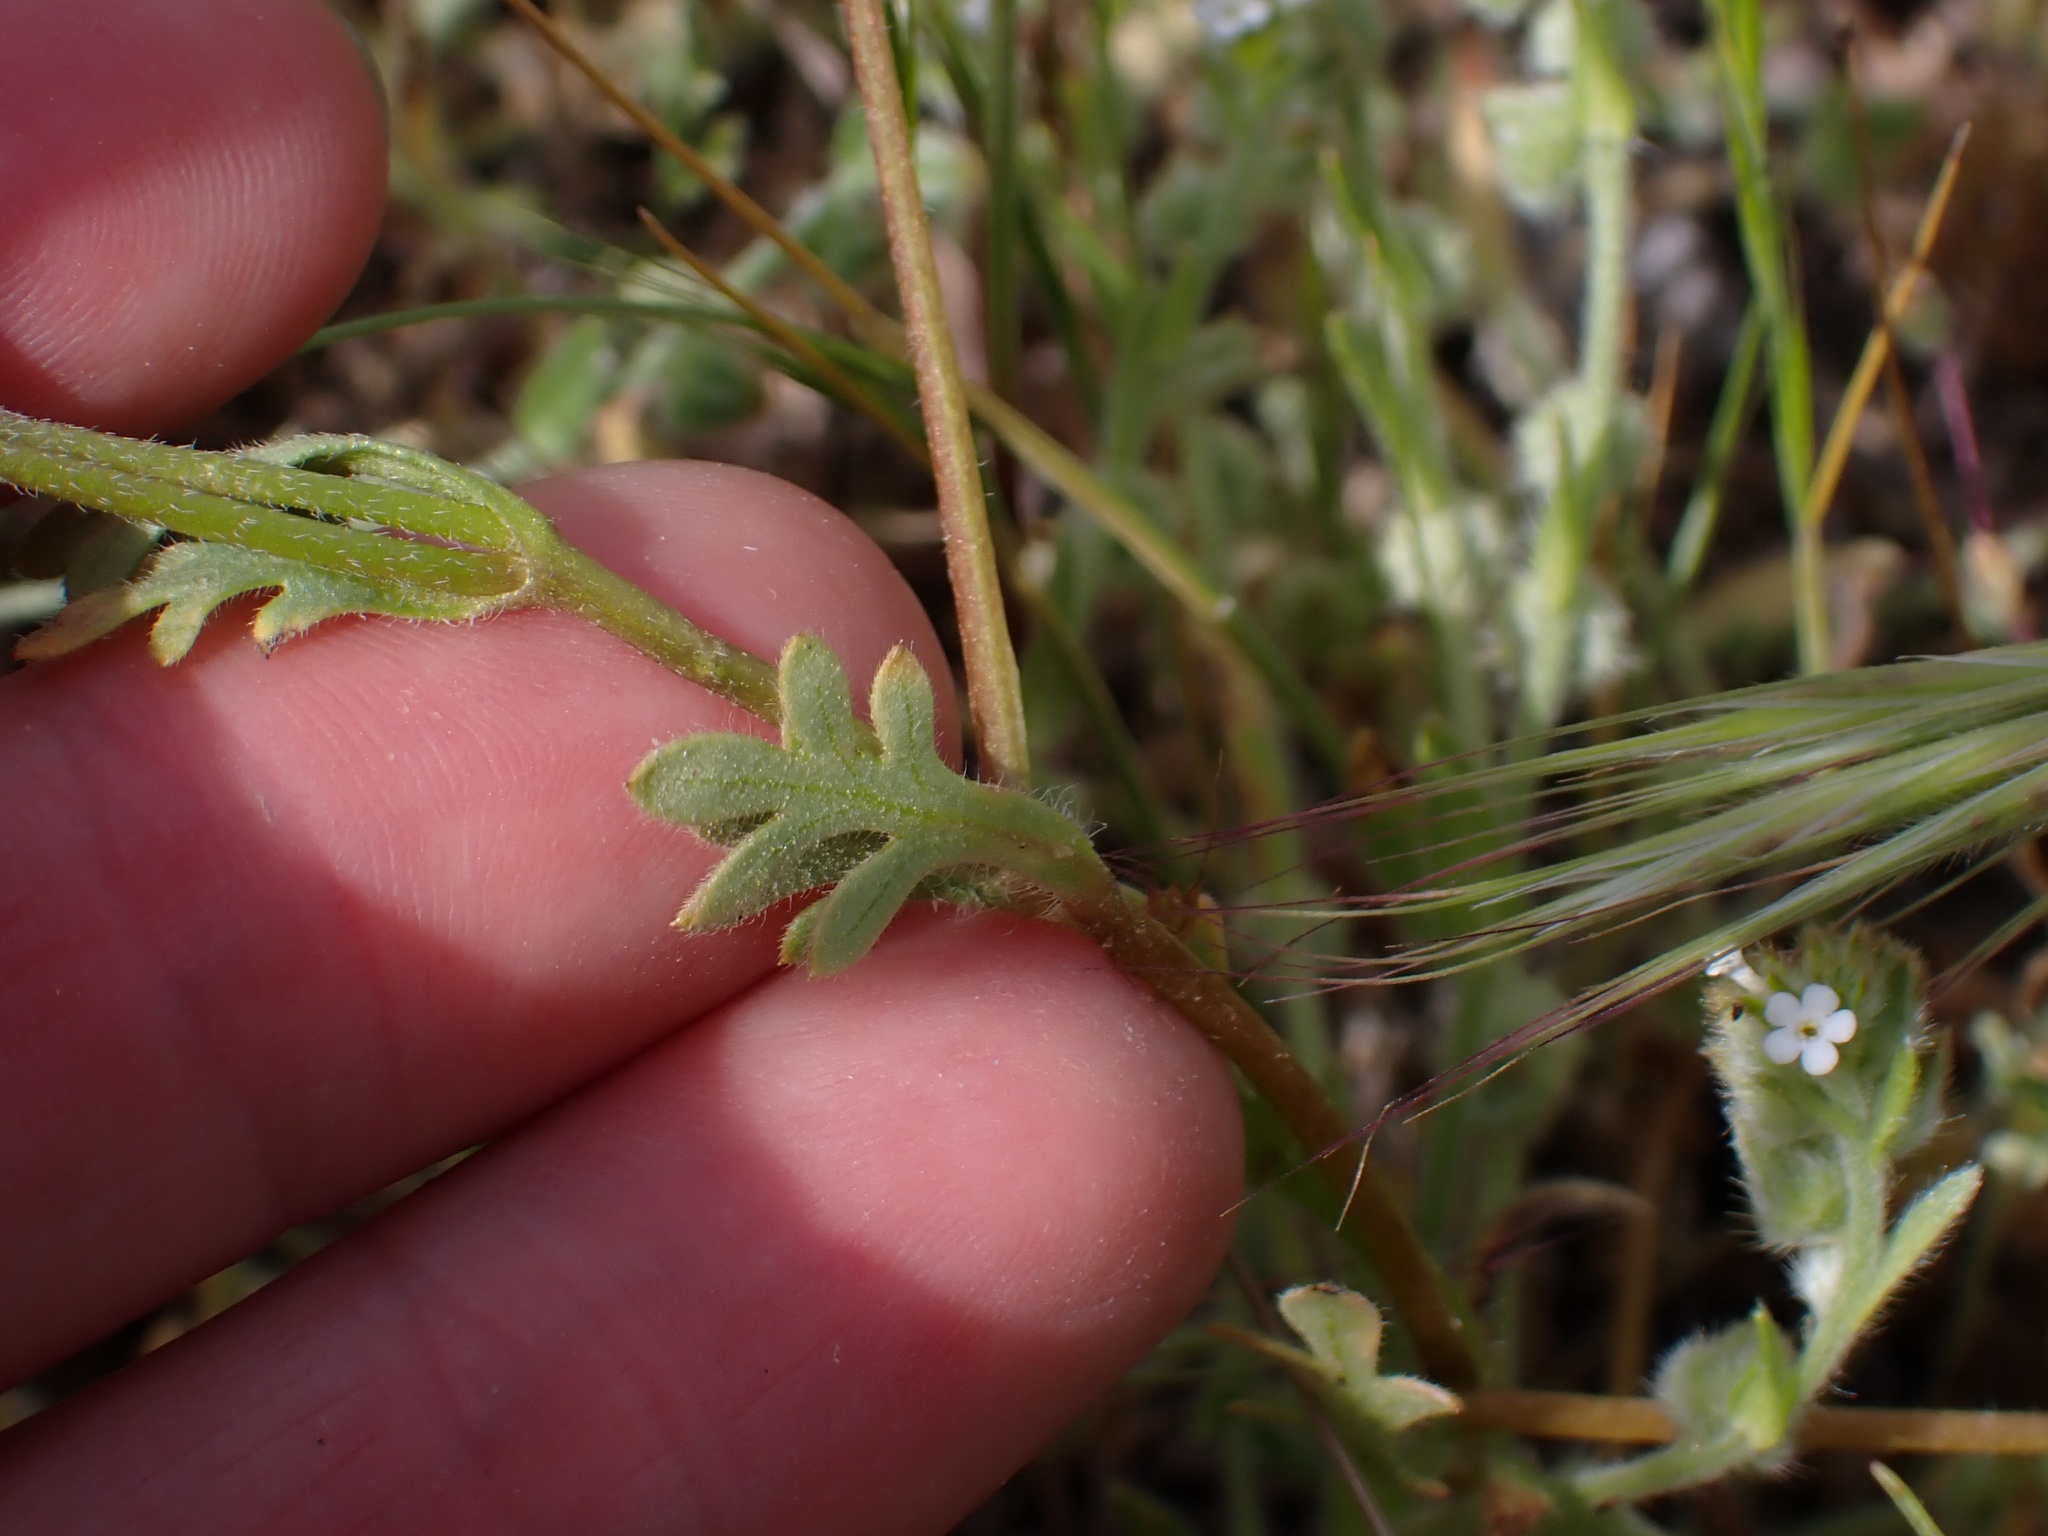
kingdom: Plantae
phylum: Tracheophyta
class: Magnoliopsida
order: Boraginales
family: Hydrophyllaceae
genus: Nemophila
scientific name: Nemophila menziesii
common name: Baby's-blue-eyes
